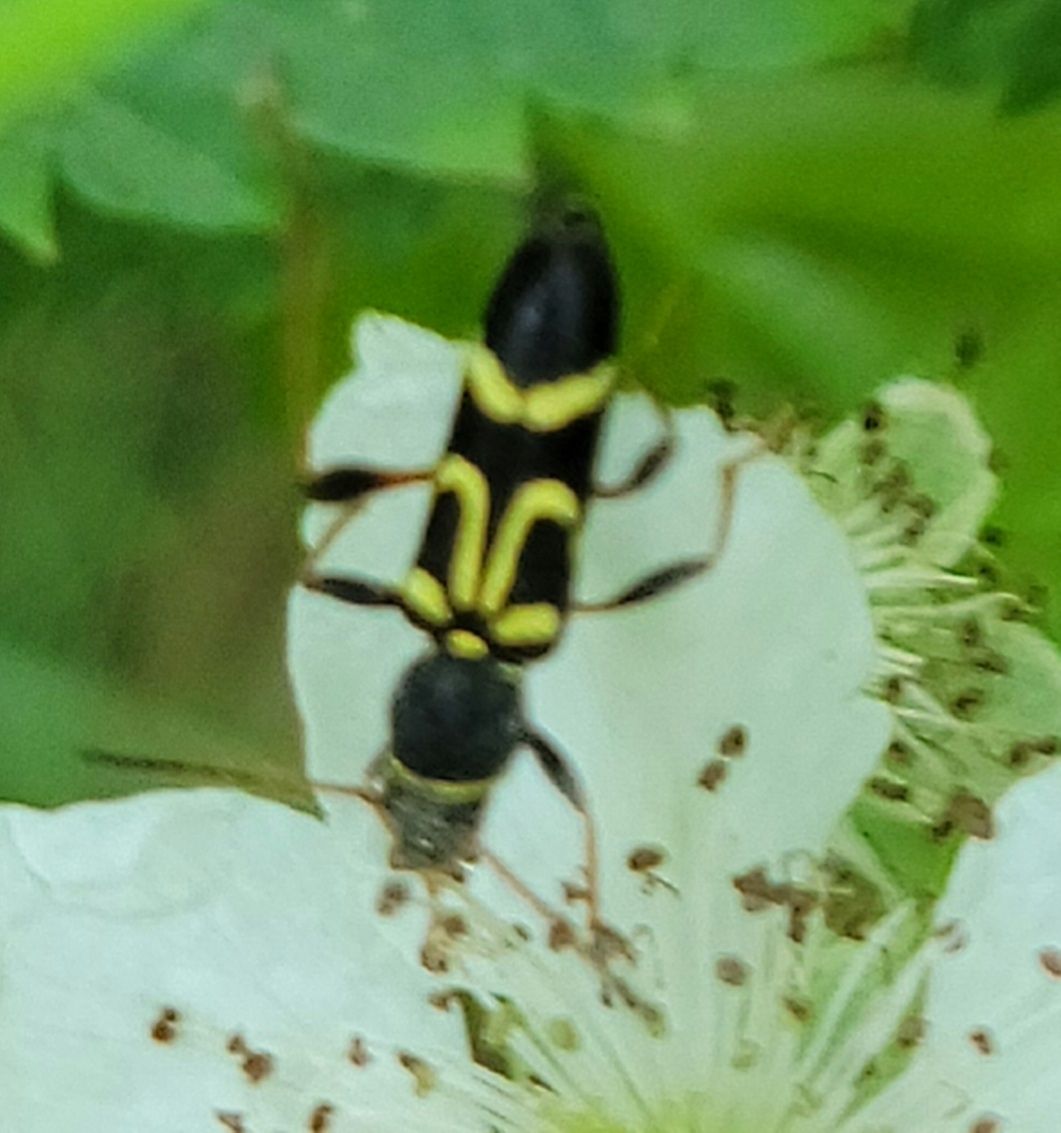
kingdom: Animalia
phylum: Arthropoda
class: Insecta
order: Coleoptera
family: Cerambycidae
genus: Clytus
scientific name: Clytus ruricola
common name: Round-necked longhorn beetle
